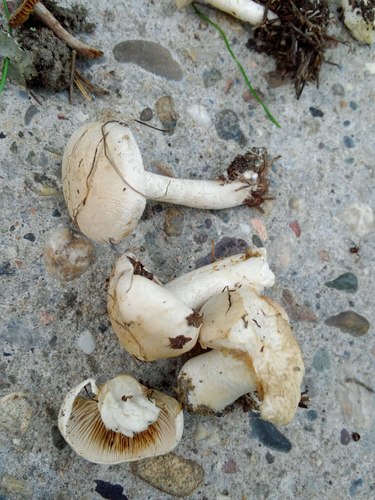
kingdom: Fungi
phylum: Basidiomycota
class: Agaricomycetes
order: Agaricales
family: Hymenogastraceae
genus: Hebeloma
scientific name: Hebeloma crustuliniforme
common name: Poison pie
